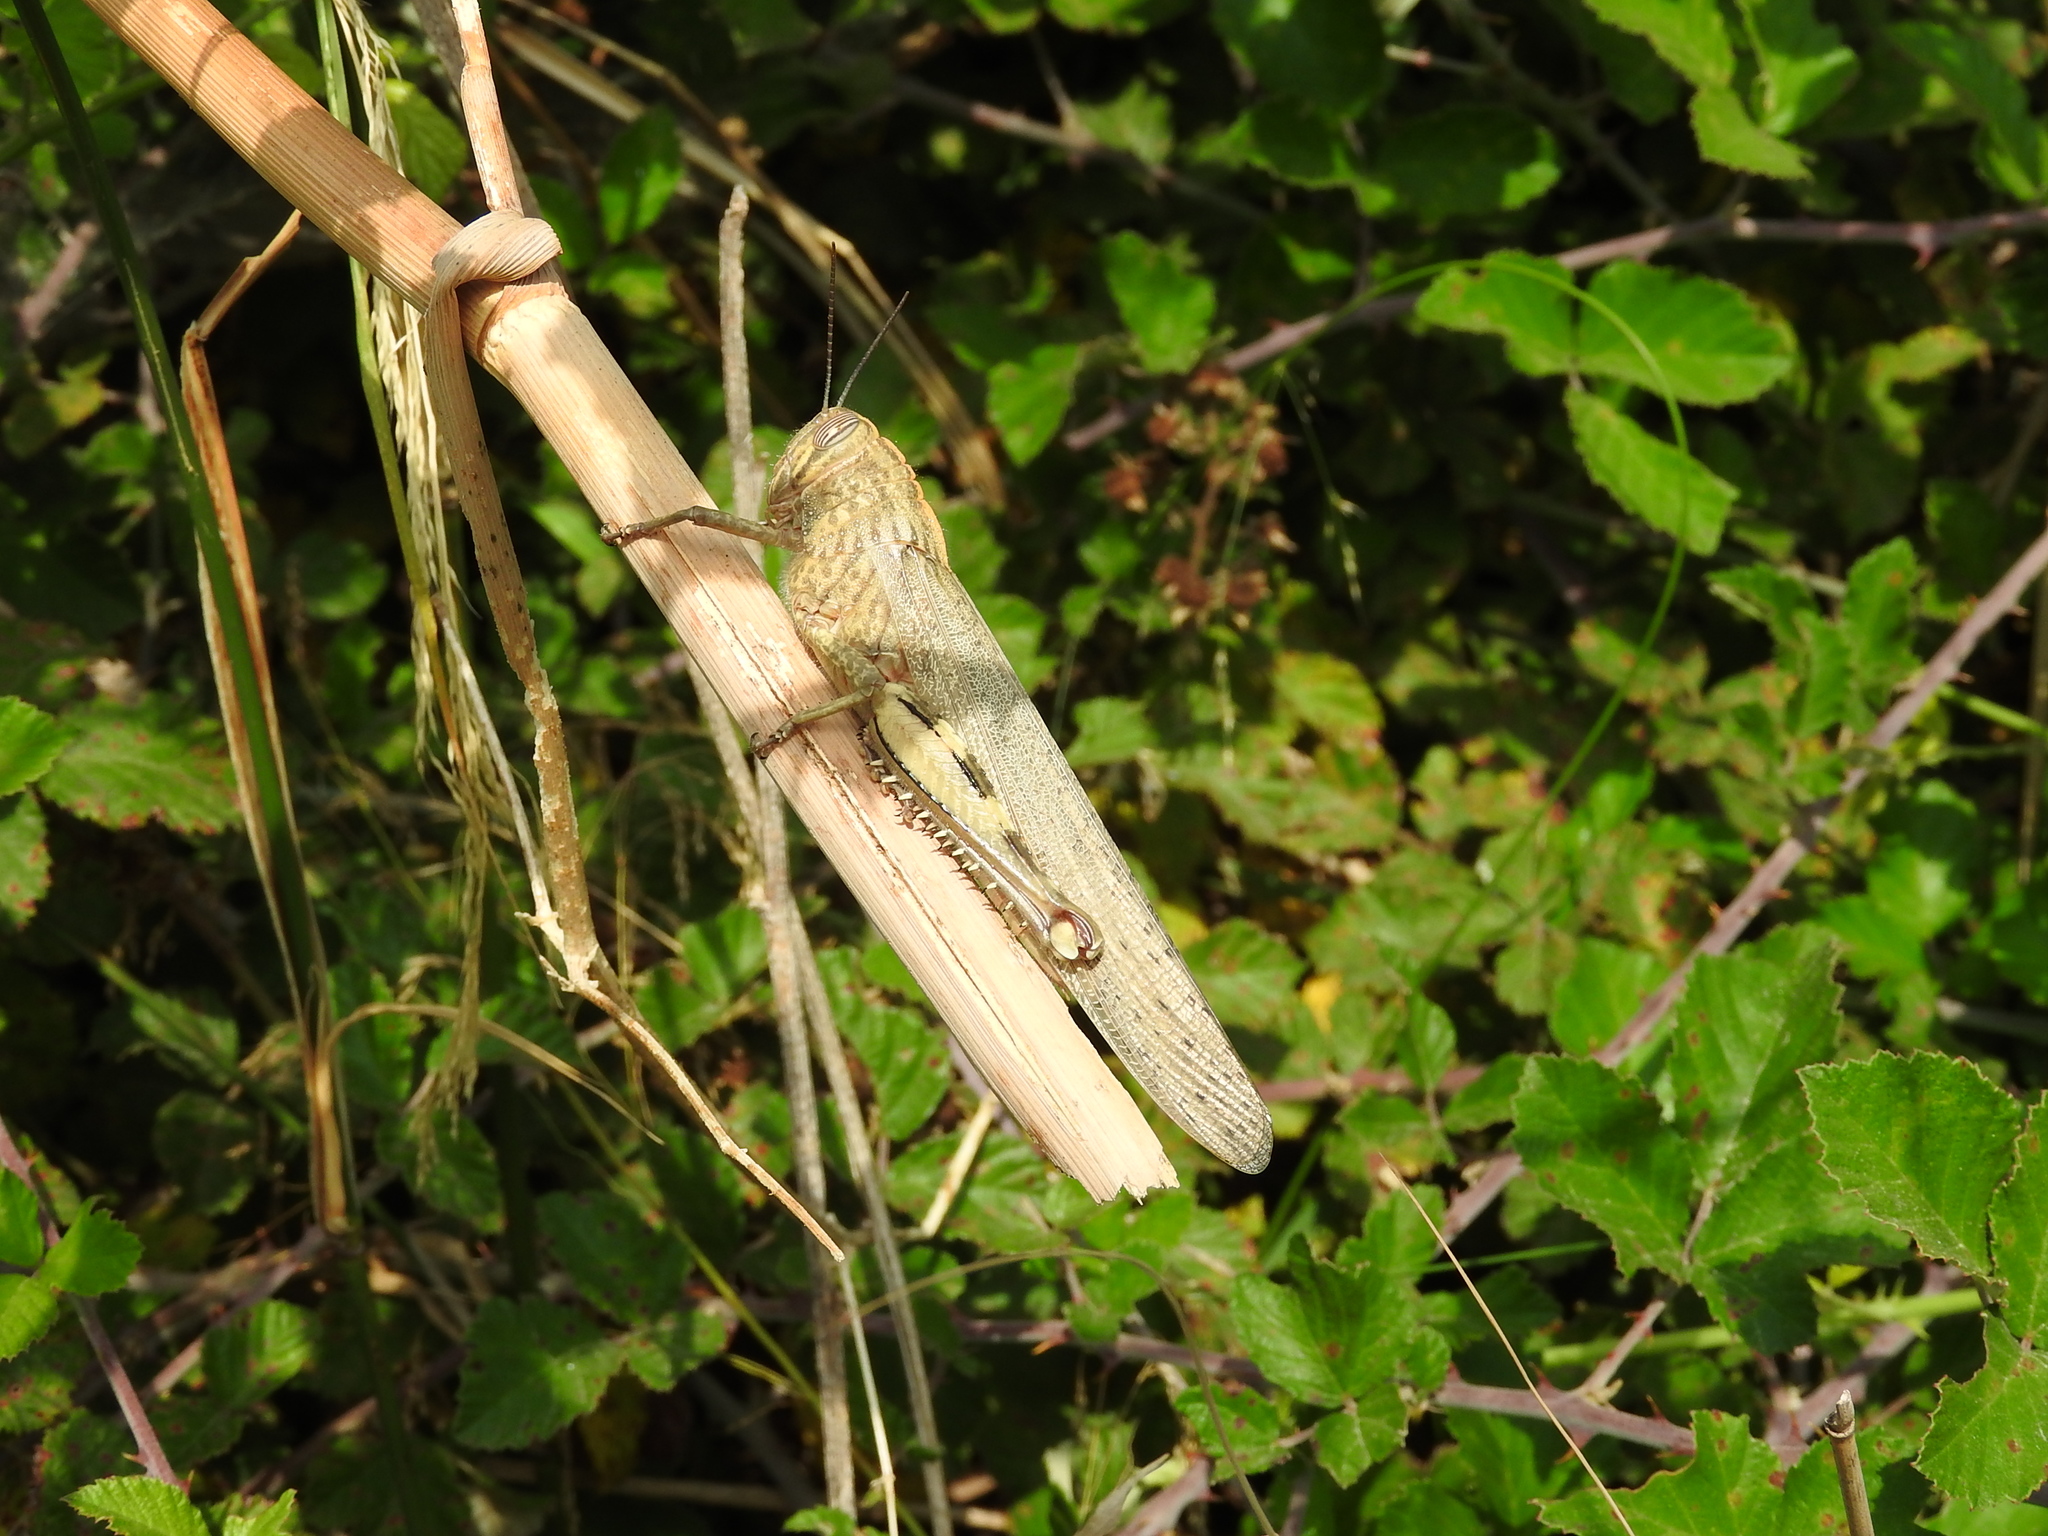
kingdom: Animalia
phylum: Arthropoda
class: Insecta
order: Orthoptera
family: Acrididae
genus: Anacridium
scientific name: Anacridium aegyptium
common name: Egyptian grasshopper
